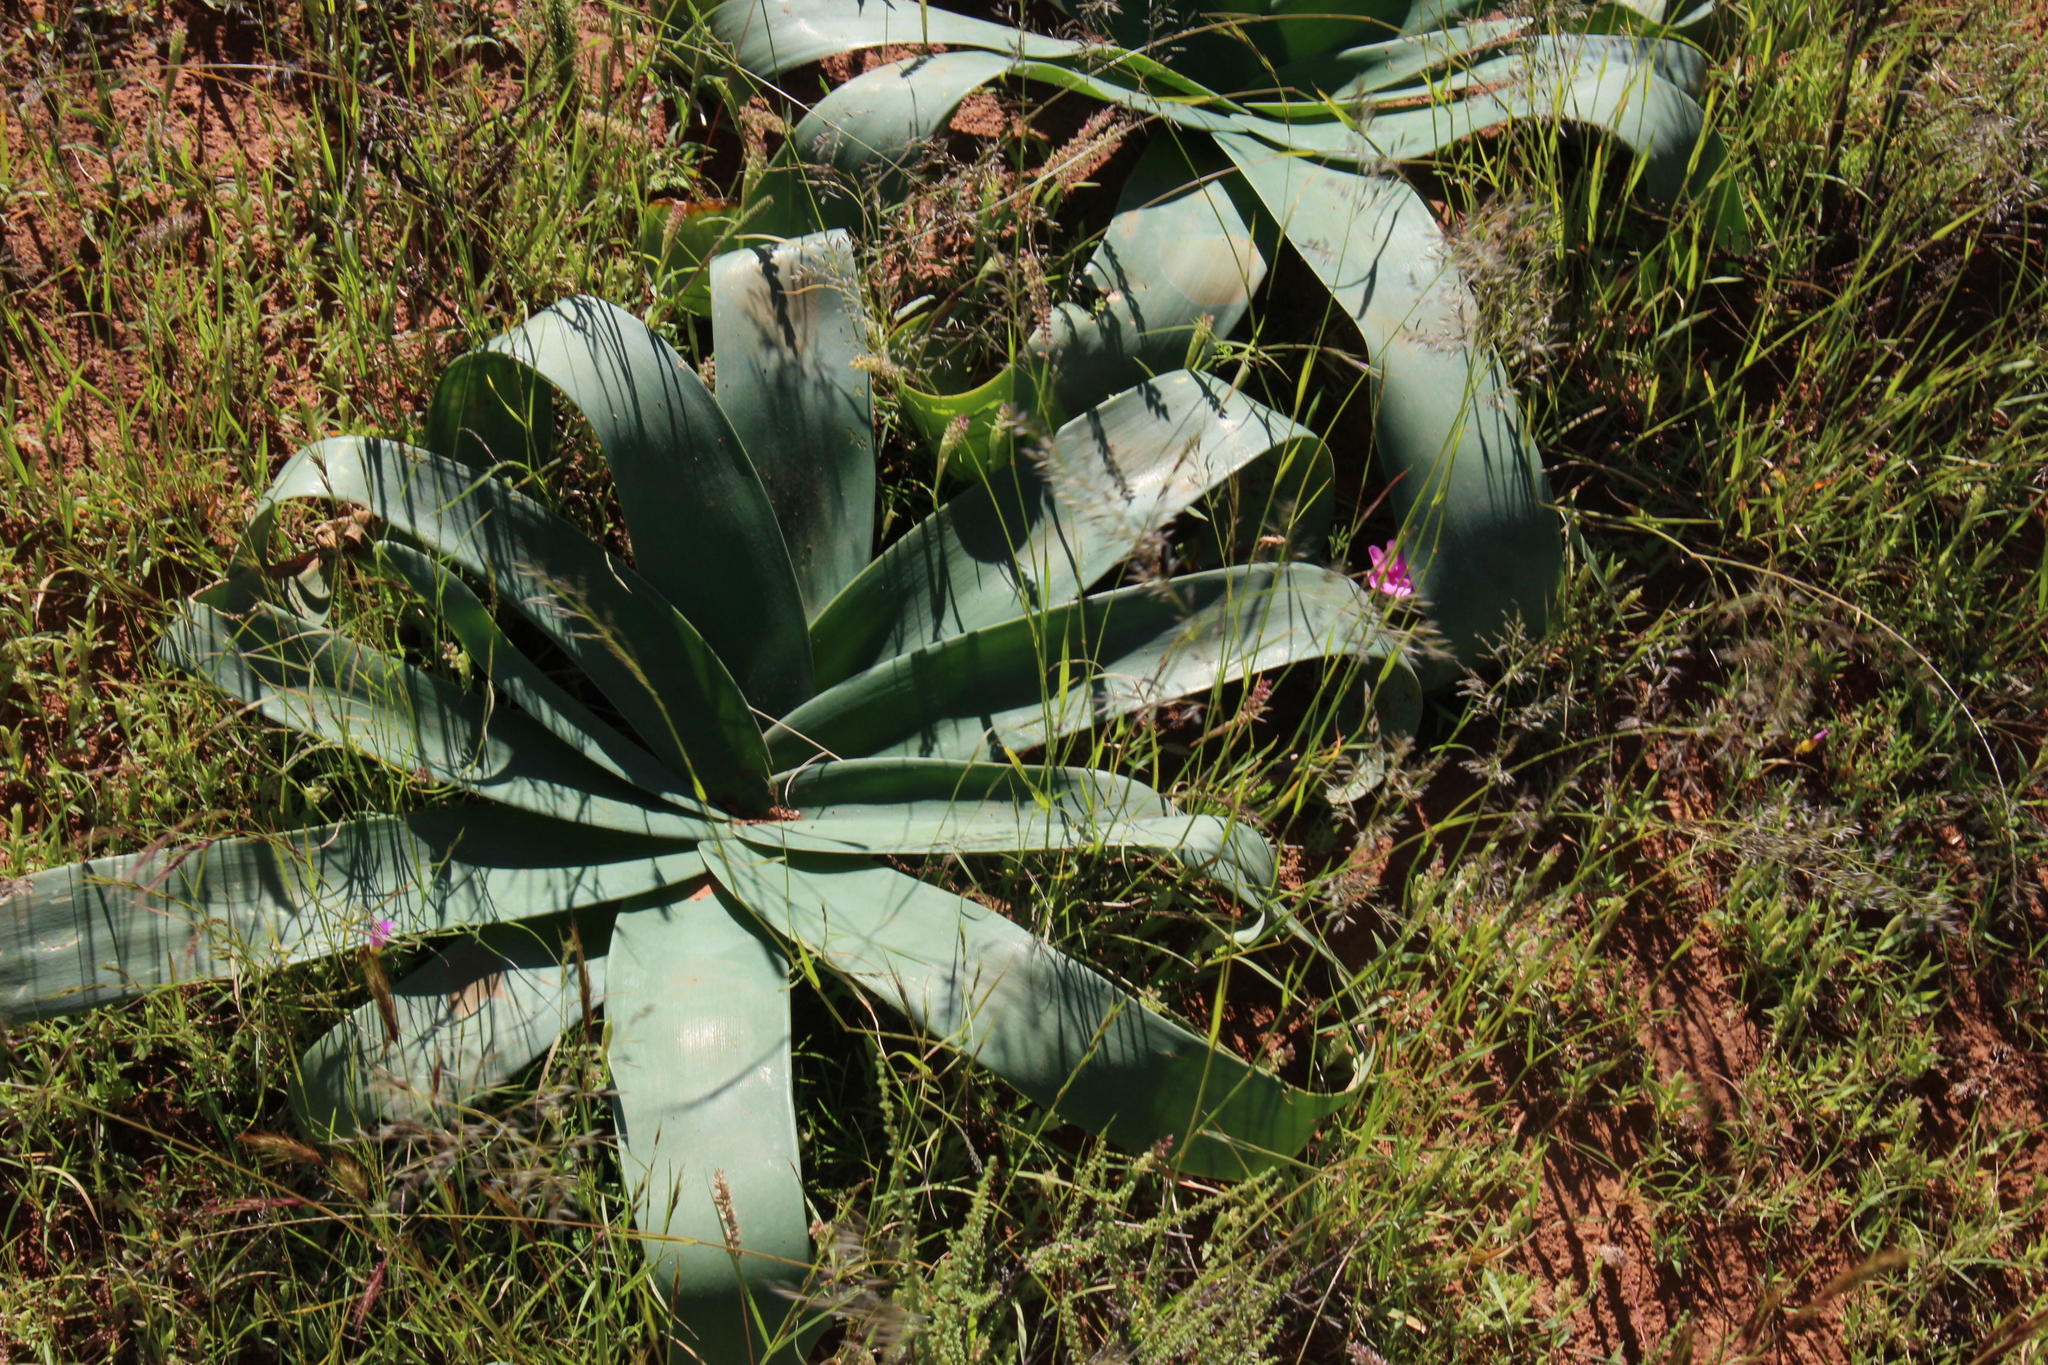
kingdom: Plantae
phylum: Tracheophyta
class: Liliopsida
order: Asparagales
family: Amaryllidaceae
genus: Ammocharis
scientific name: Ammocharis coranica
